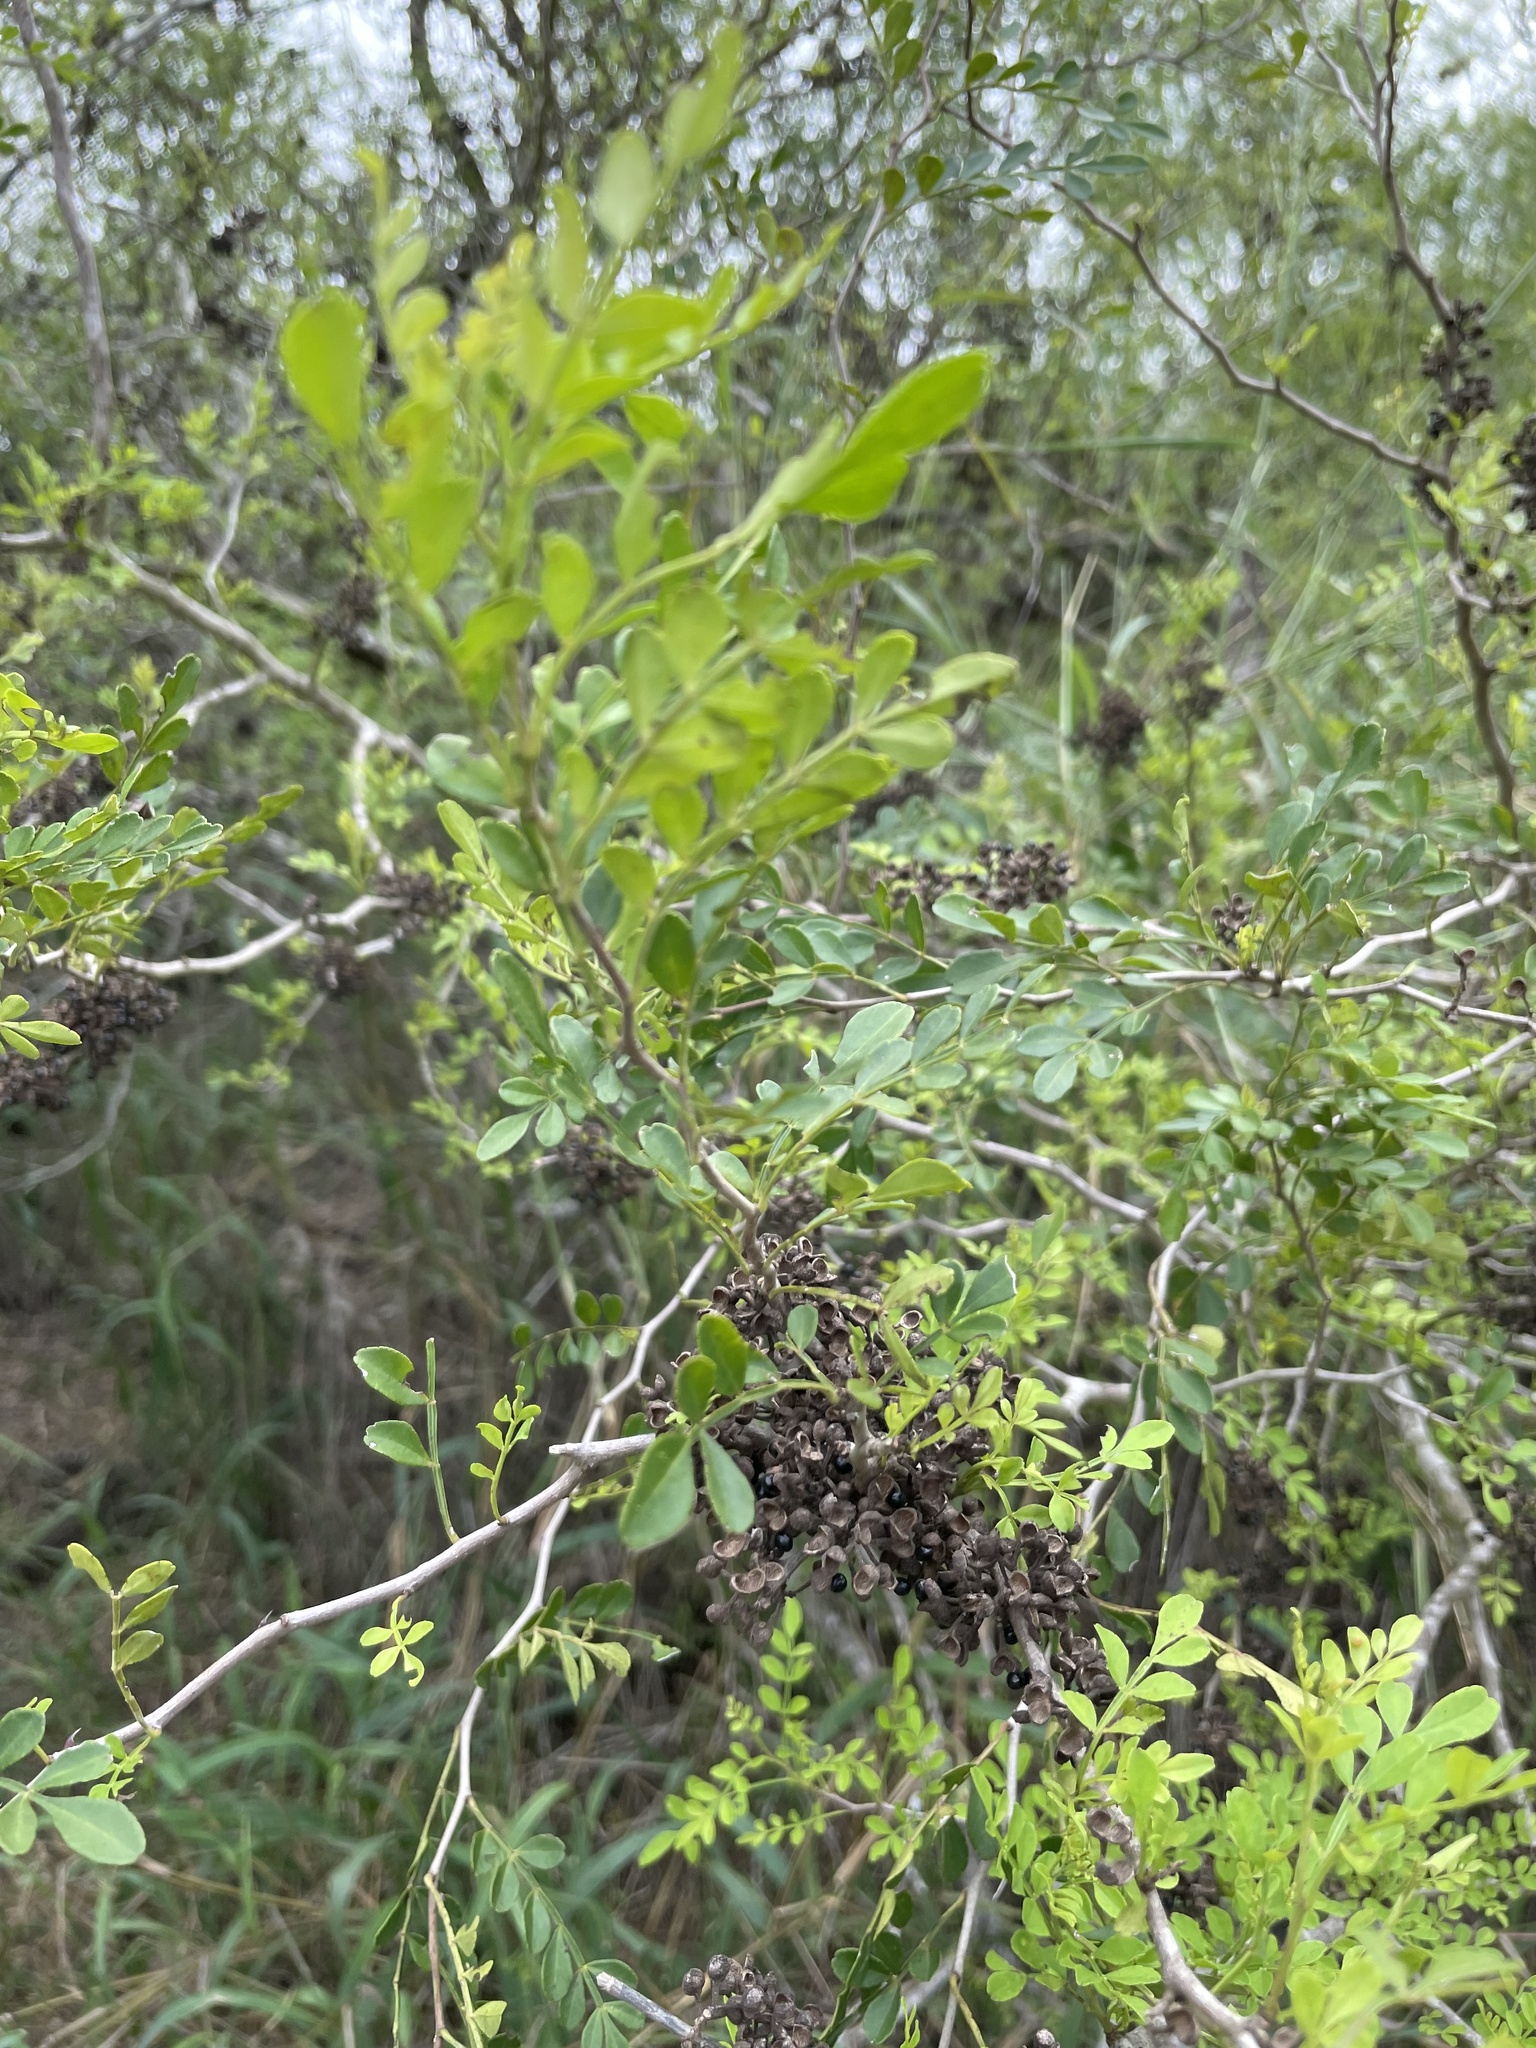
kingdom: Plantae
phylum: Tracheophyta
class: Magnoliopsida
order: Sapindales
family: Rutaceae
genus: Zanthoxylum
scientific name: Zanthoxylum fagara
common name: Lime prickly-ash
